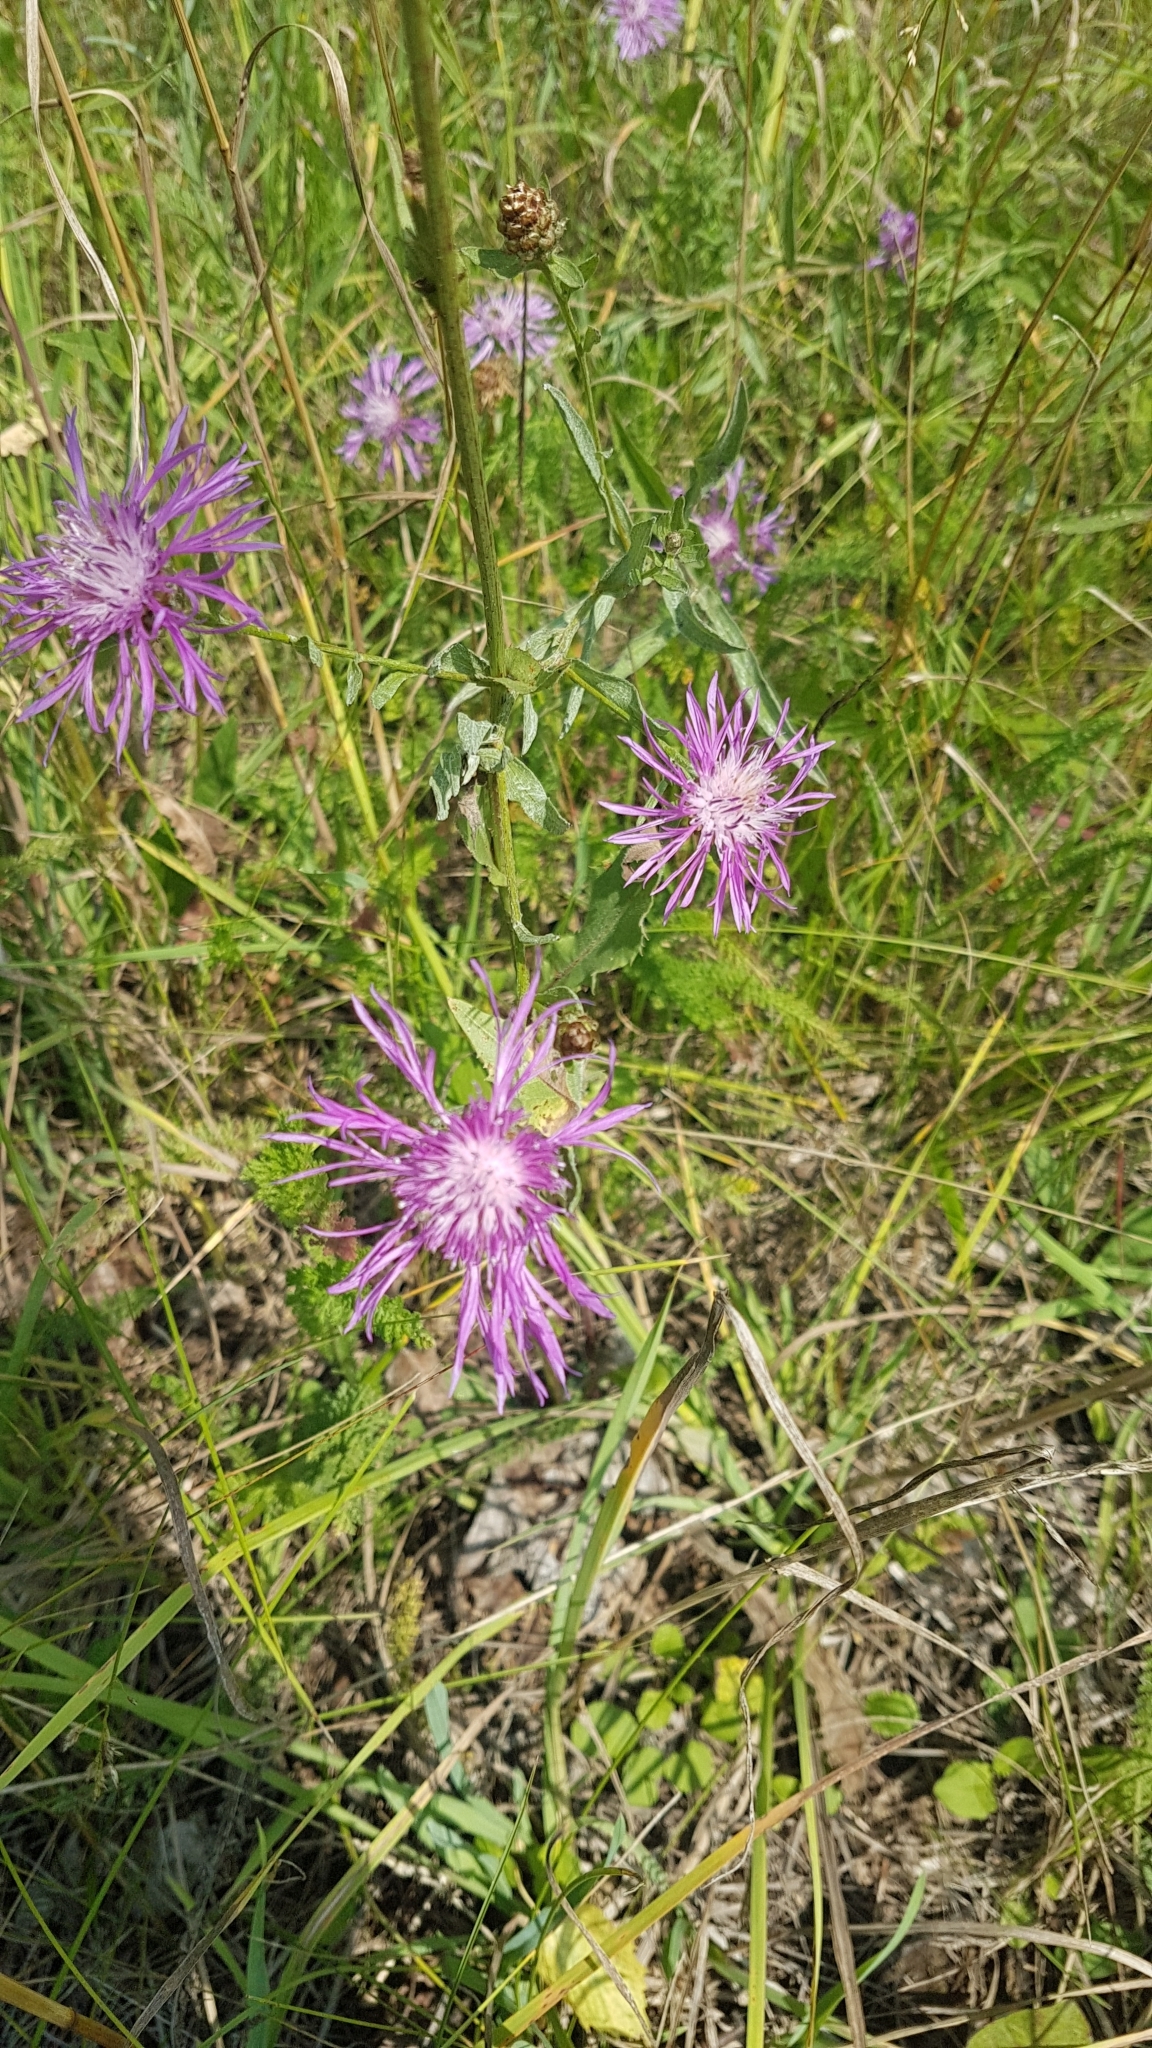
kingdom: Plantae
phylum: Tracheophyta
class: Magnoliopsida
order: Asterales
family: Asteraceae
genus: Centaurea
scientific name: Centaurea jacea
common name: Brown knapweed
